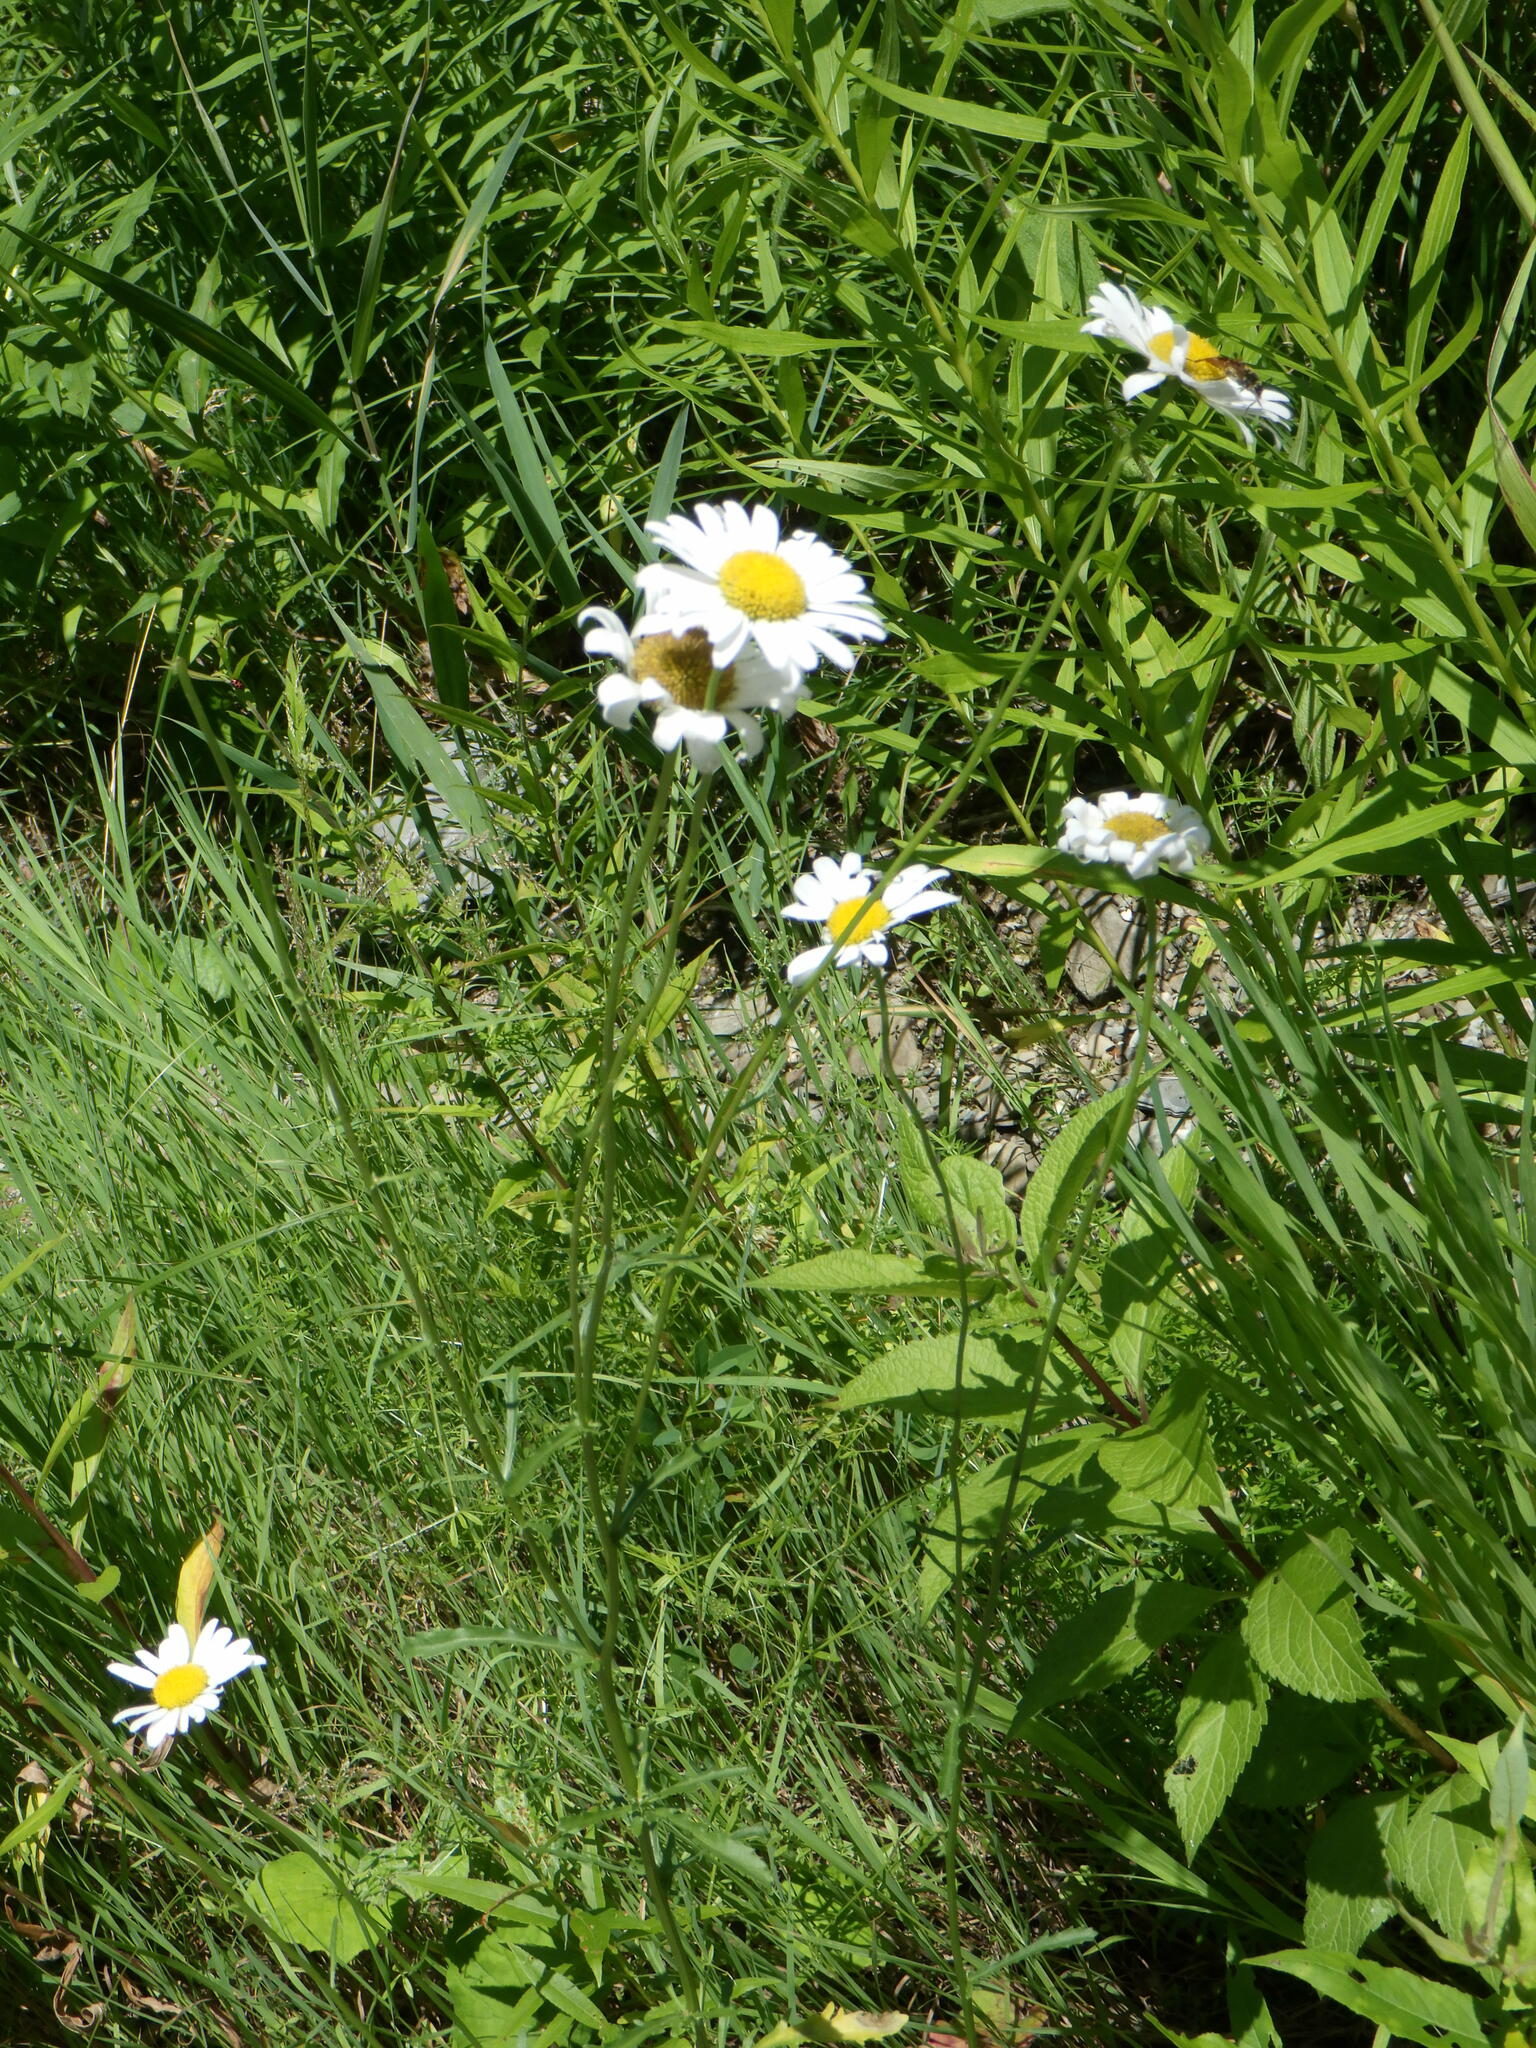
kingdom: Plantae
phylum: Tracheophyta
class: Magnoliopsida
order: Asterales
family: Asteraceae
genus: Leucanthemum
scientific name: Leucanthemum vulgare
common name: Oxeye daisy
